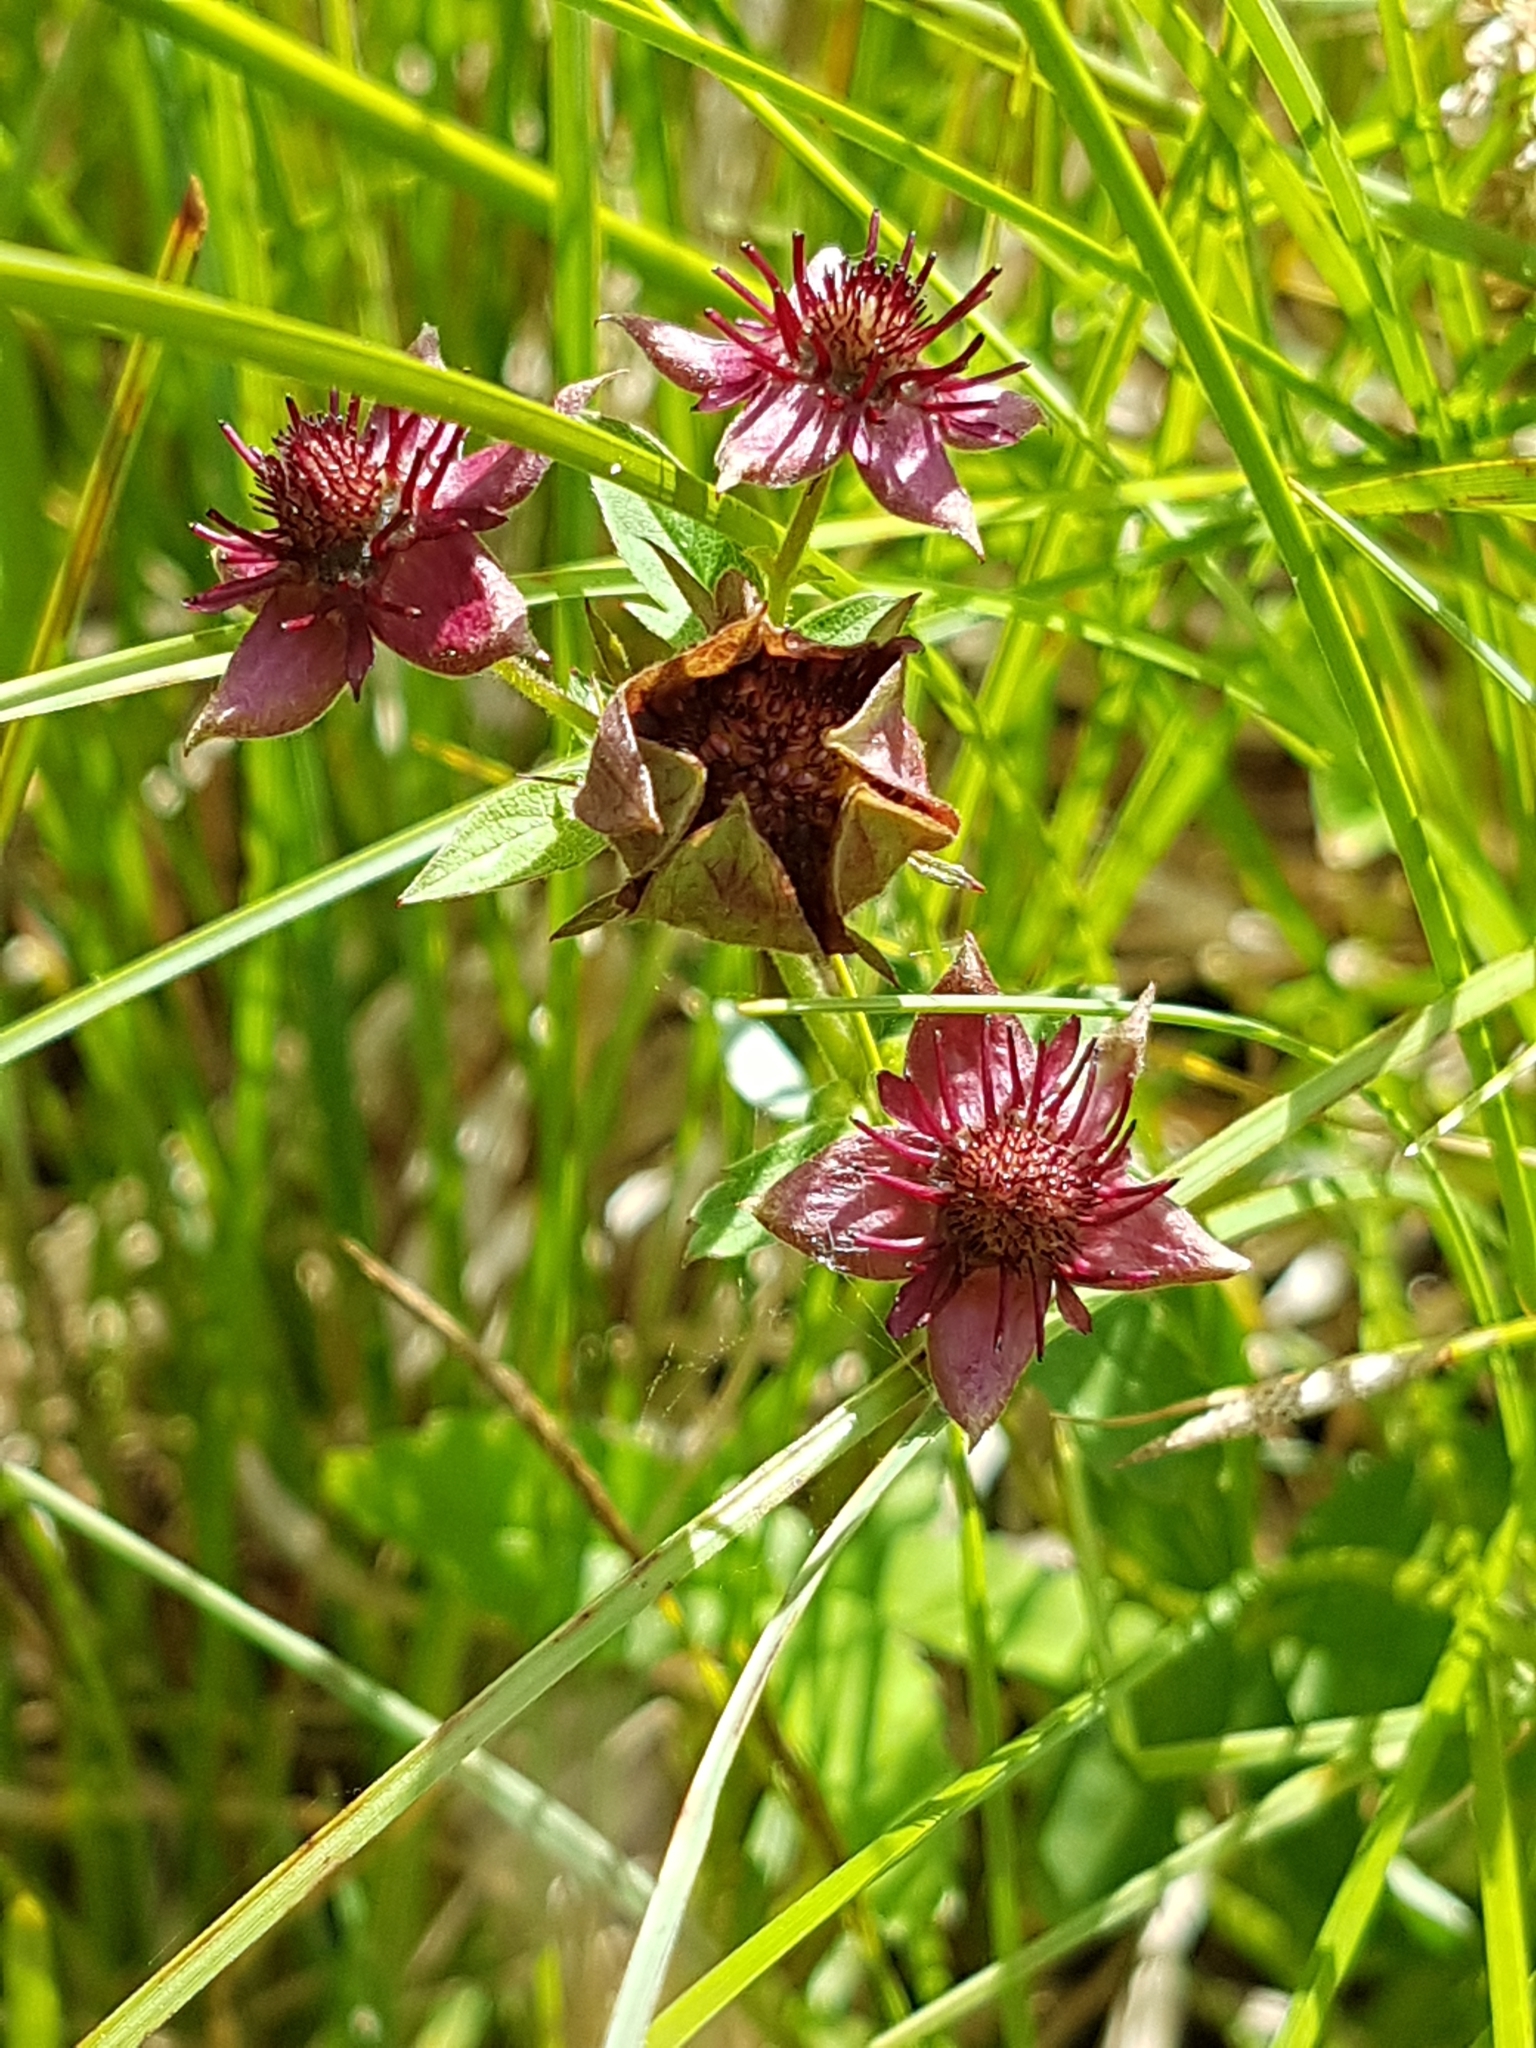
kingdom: Plantae
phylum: Tracheophyta
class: Magnoliopsida
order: Rosales
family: Rosaceae
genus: Comarum
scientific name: Comarum palustre
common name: Marsh cinquefoil
